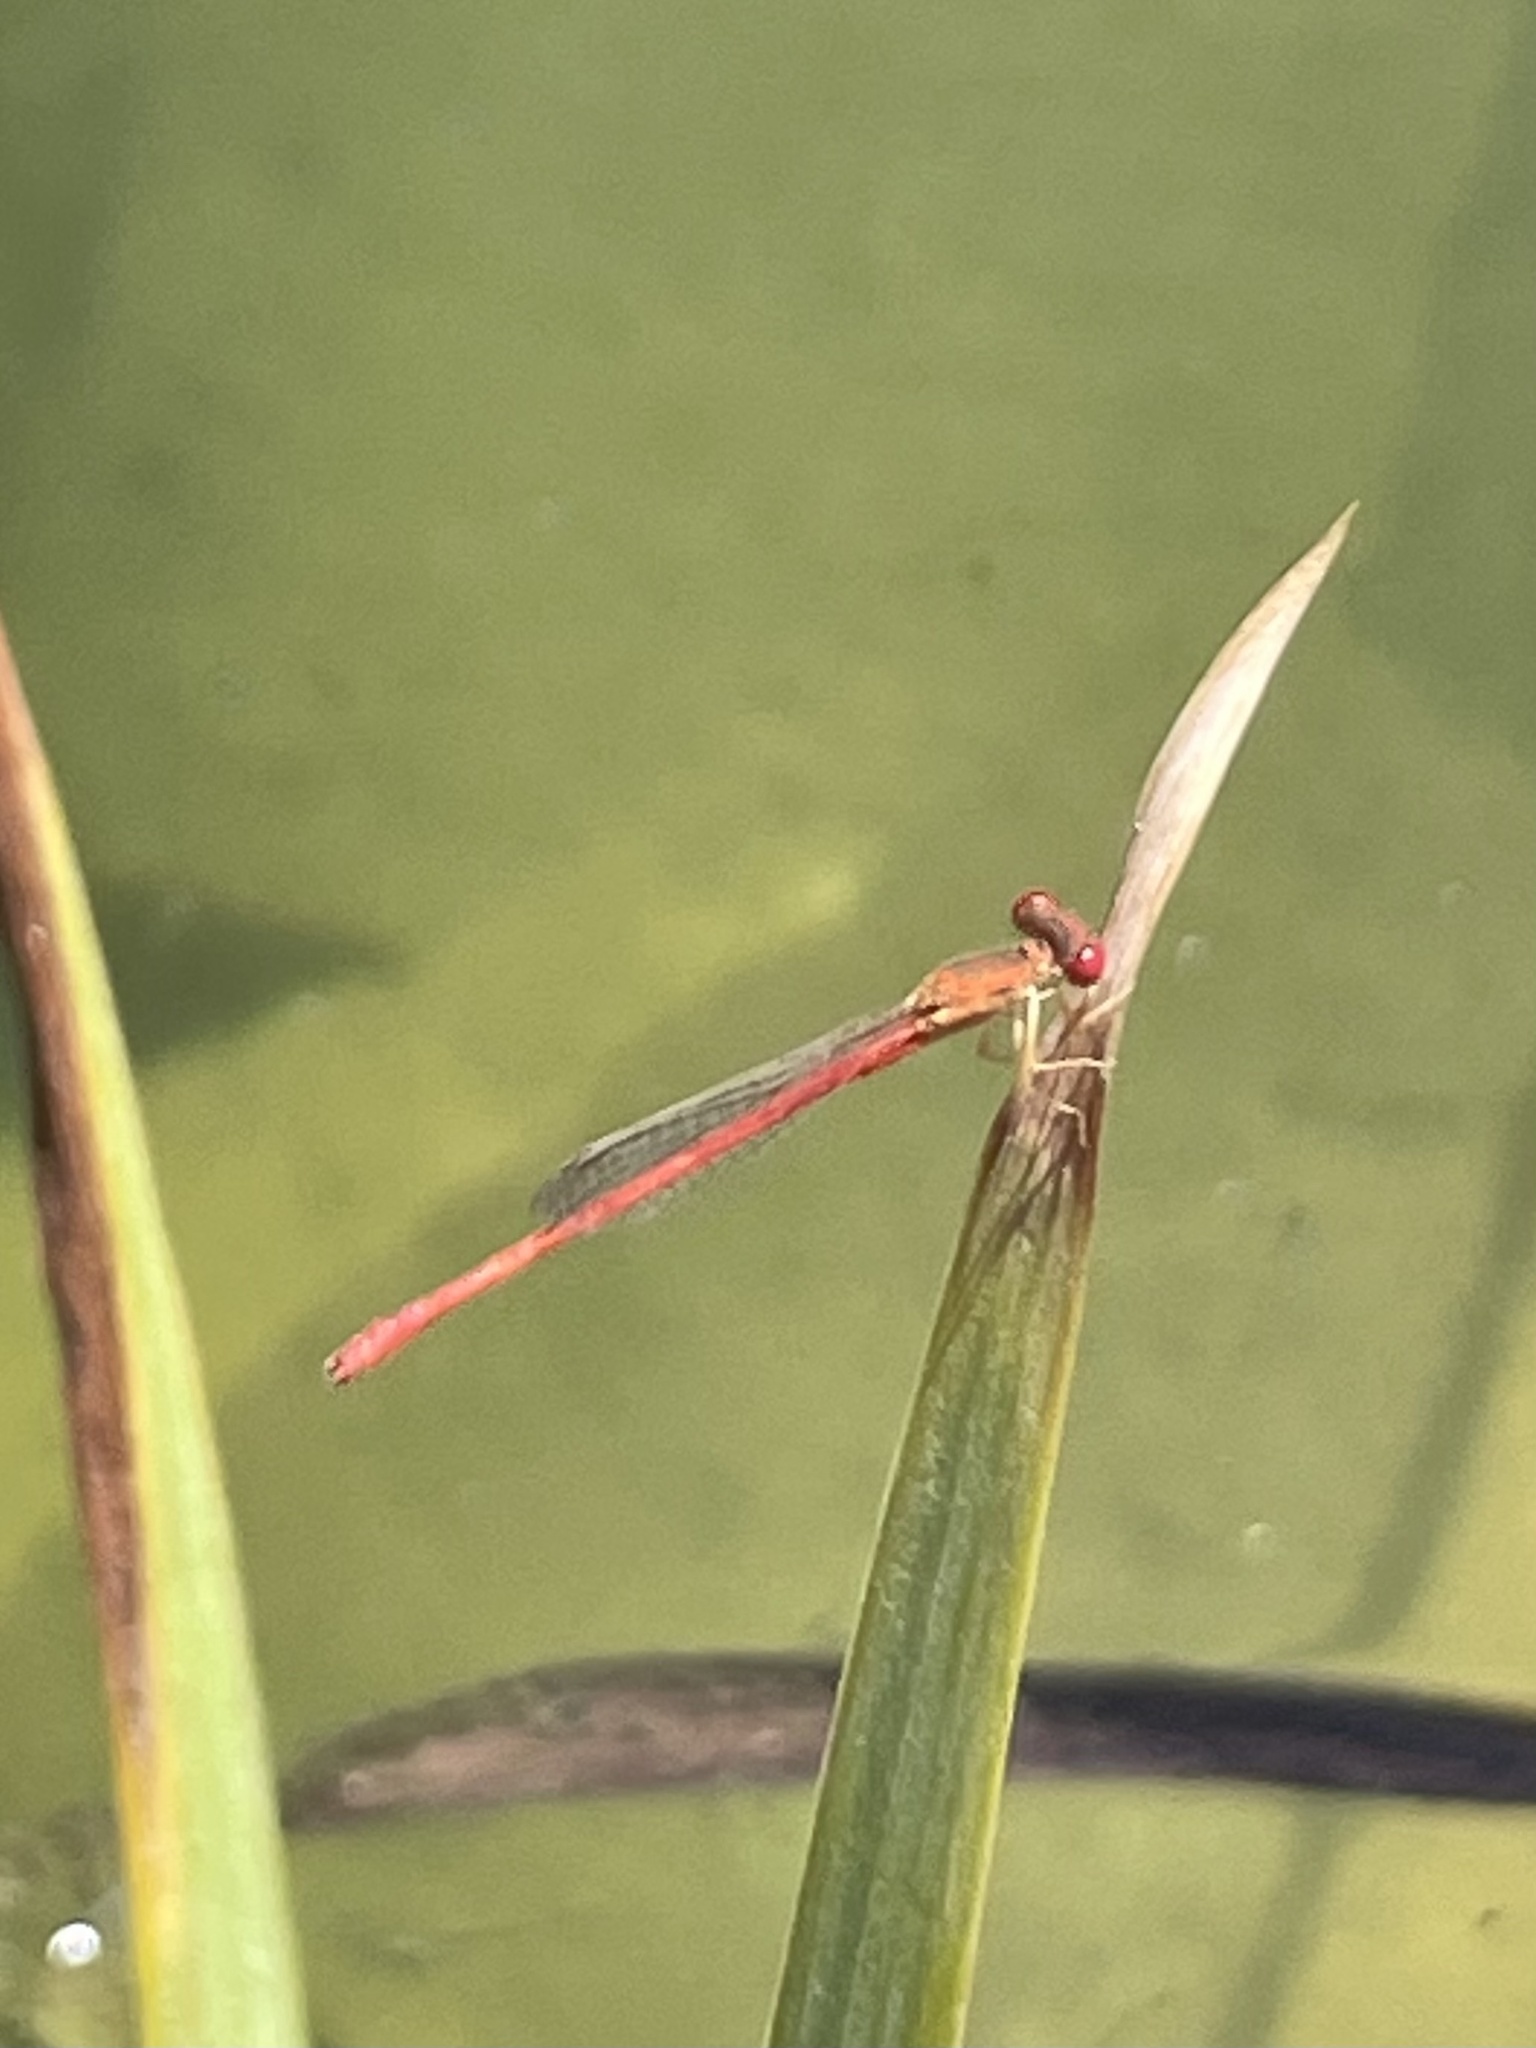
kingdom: Animalia
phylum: Arthropoda
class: Insecta
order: Odonata
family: Coenagrionidae
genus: Telebasis
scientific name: Telebasis salva
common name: Desert firetail
